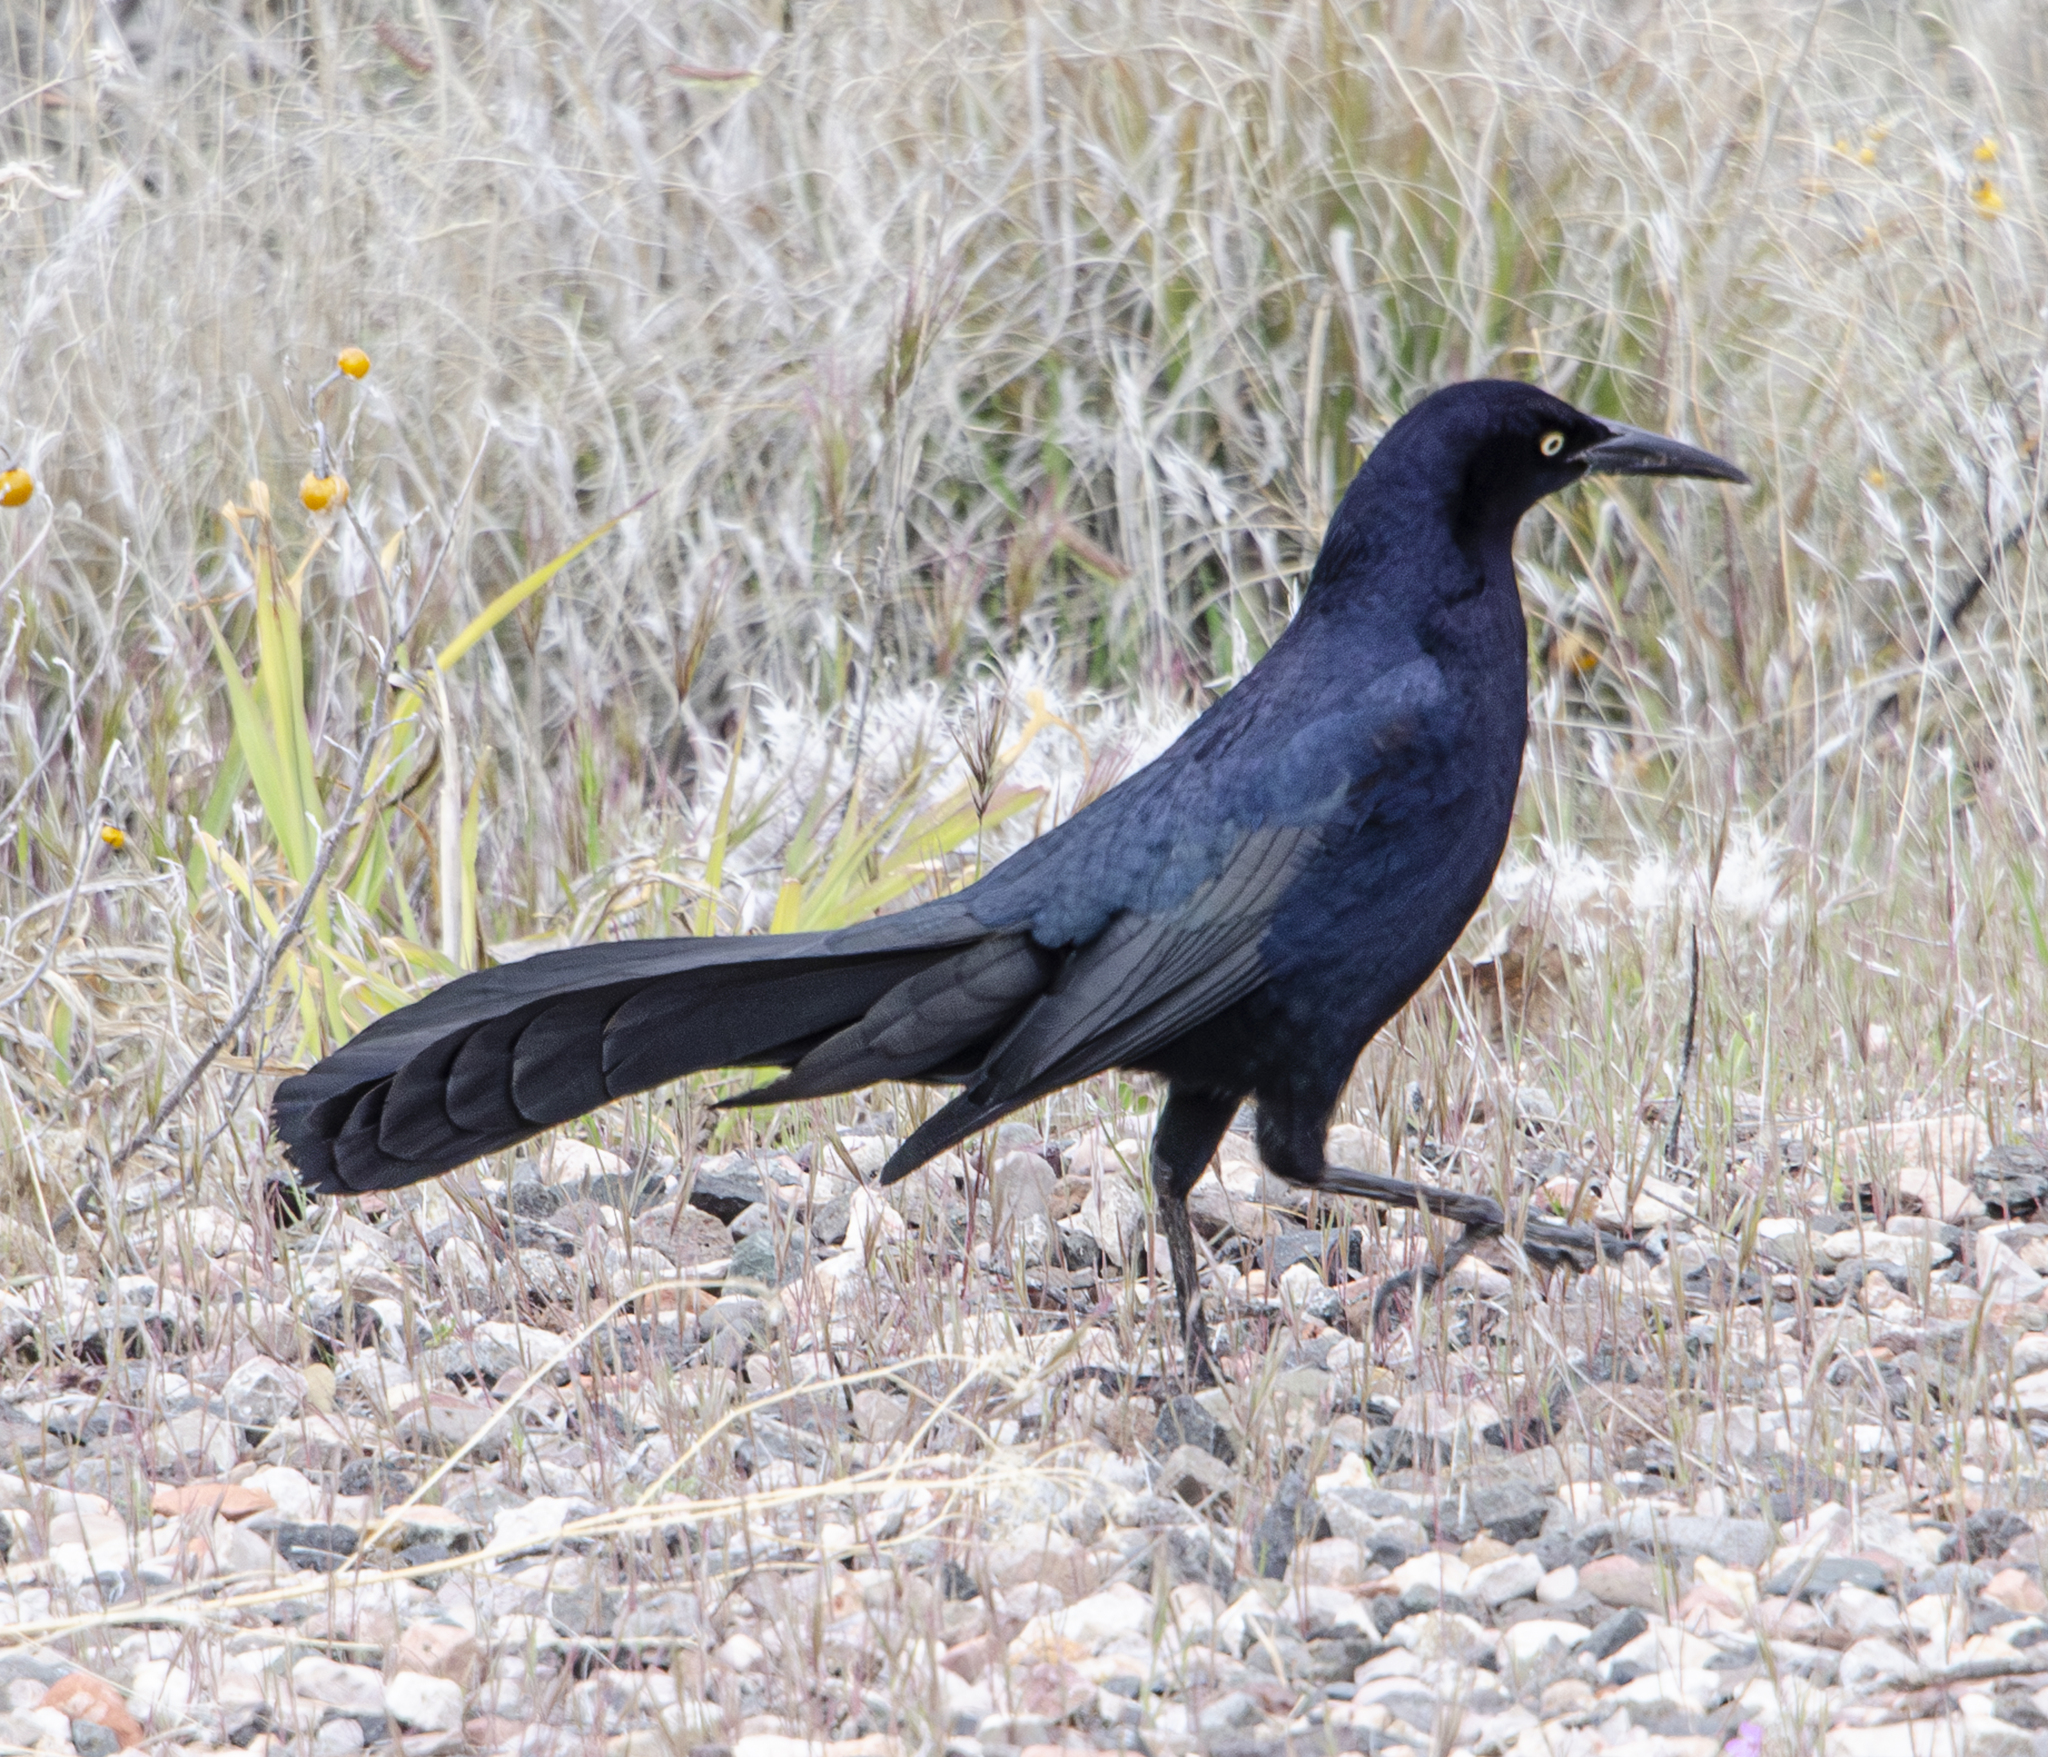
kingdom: Animalia
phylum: Chordata
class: Aves
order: Passeriformes
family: Icteridae
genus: Quiscalus
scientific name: Quiscalus mexicanus
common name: Great-tailed grackle
